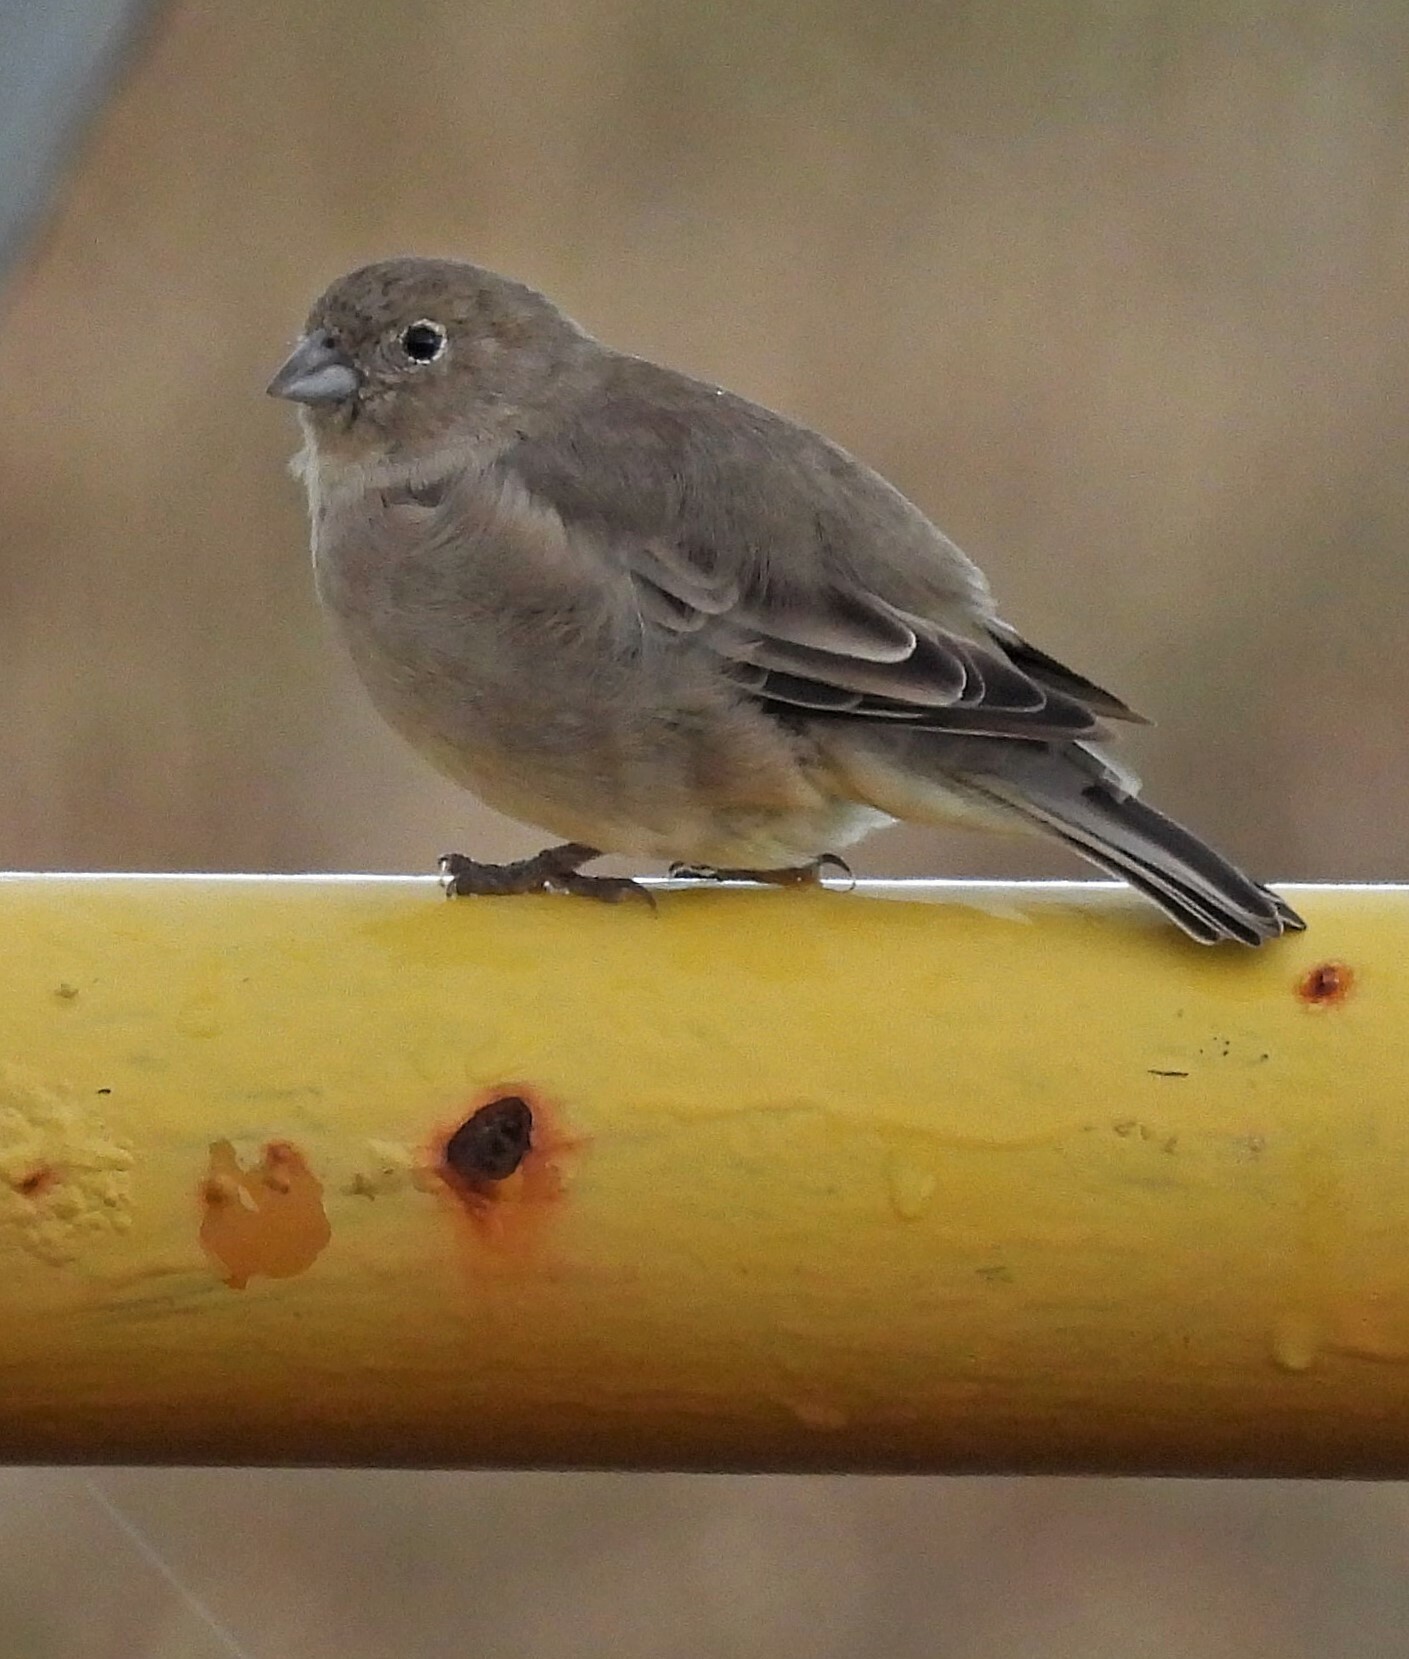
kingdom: Animalia
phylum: Chordata
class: Aves
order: Passeriformes
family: Thraupidae
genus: Sicalis
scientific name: Sicalis lebruni
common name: Patagonian yellow finch
